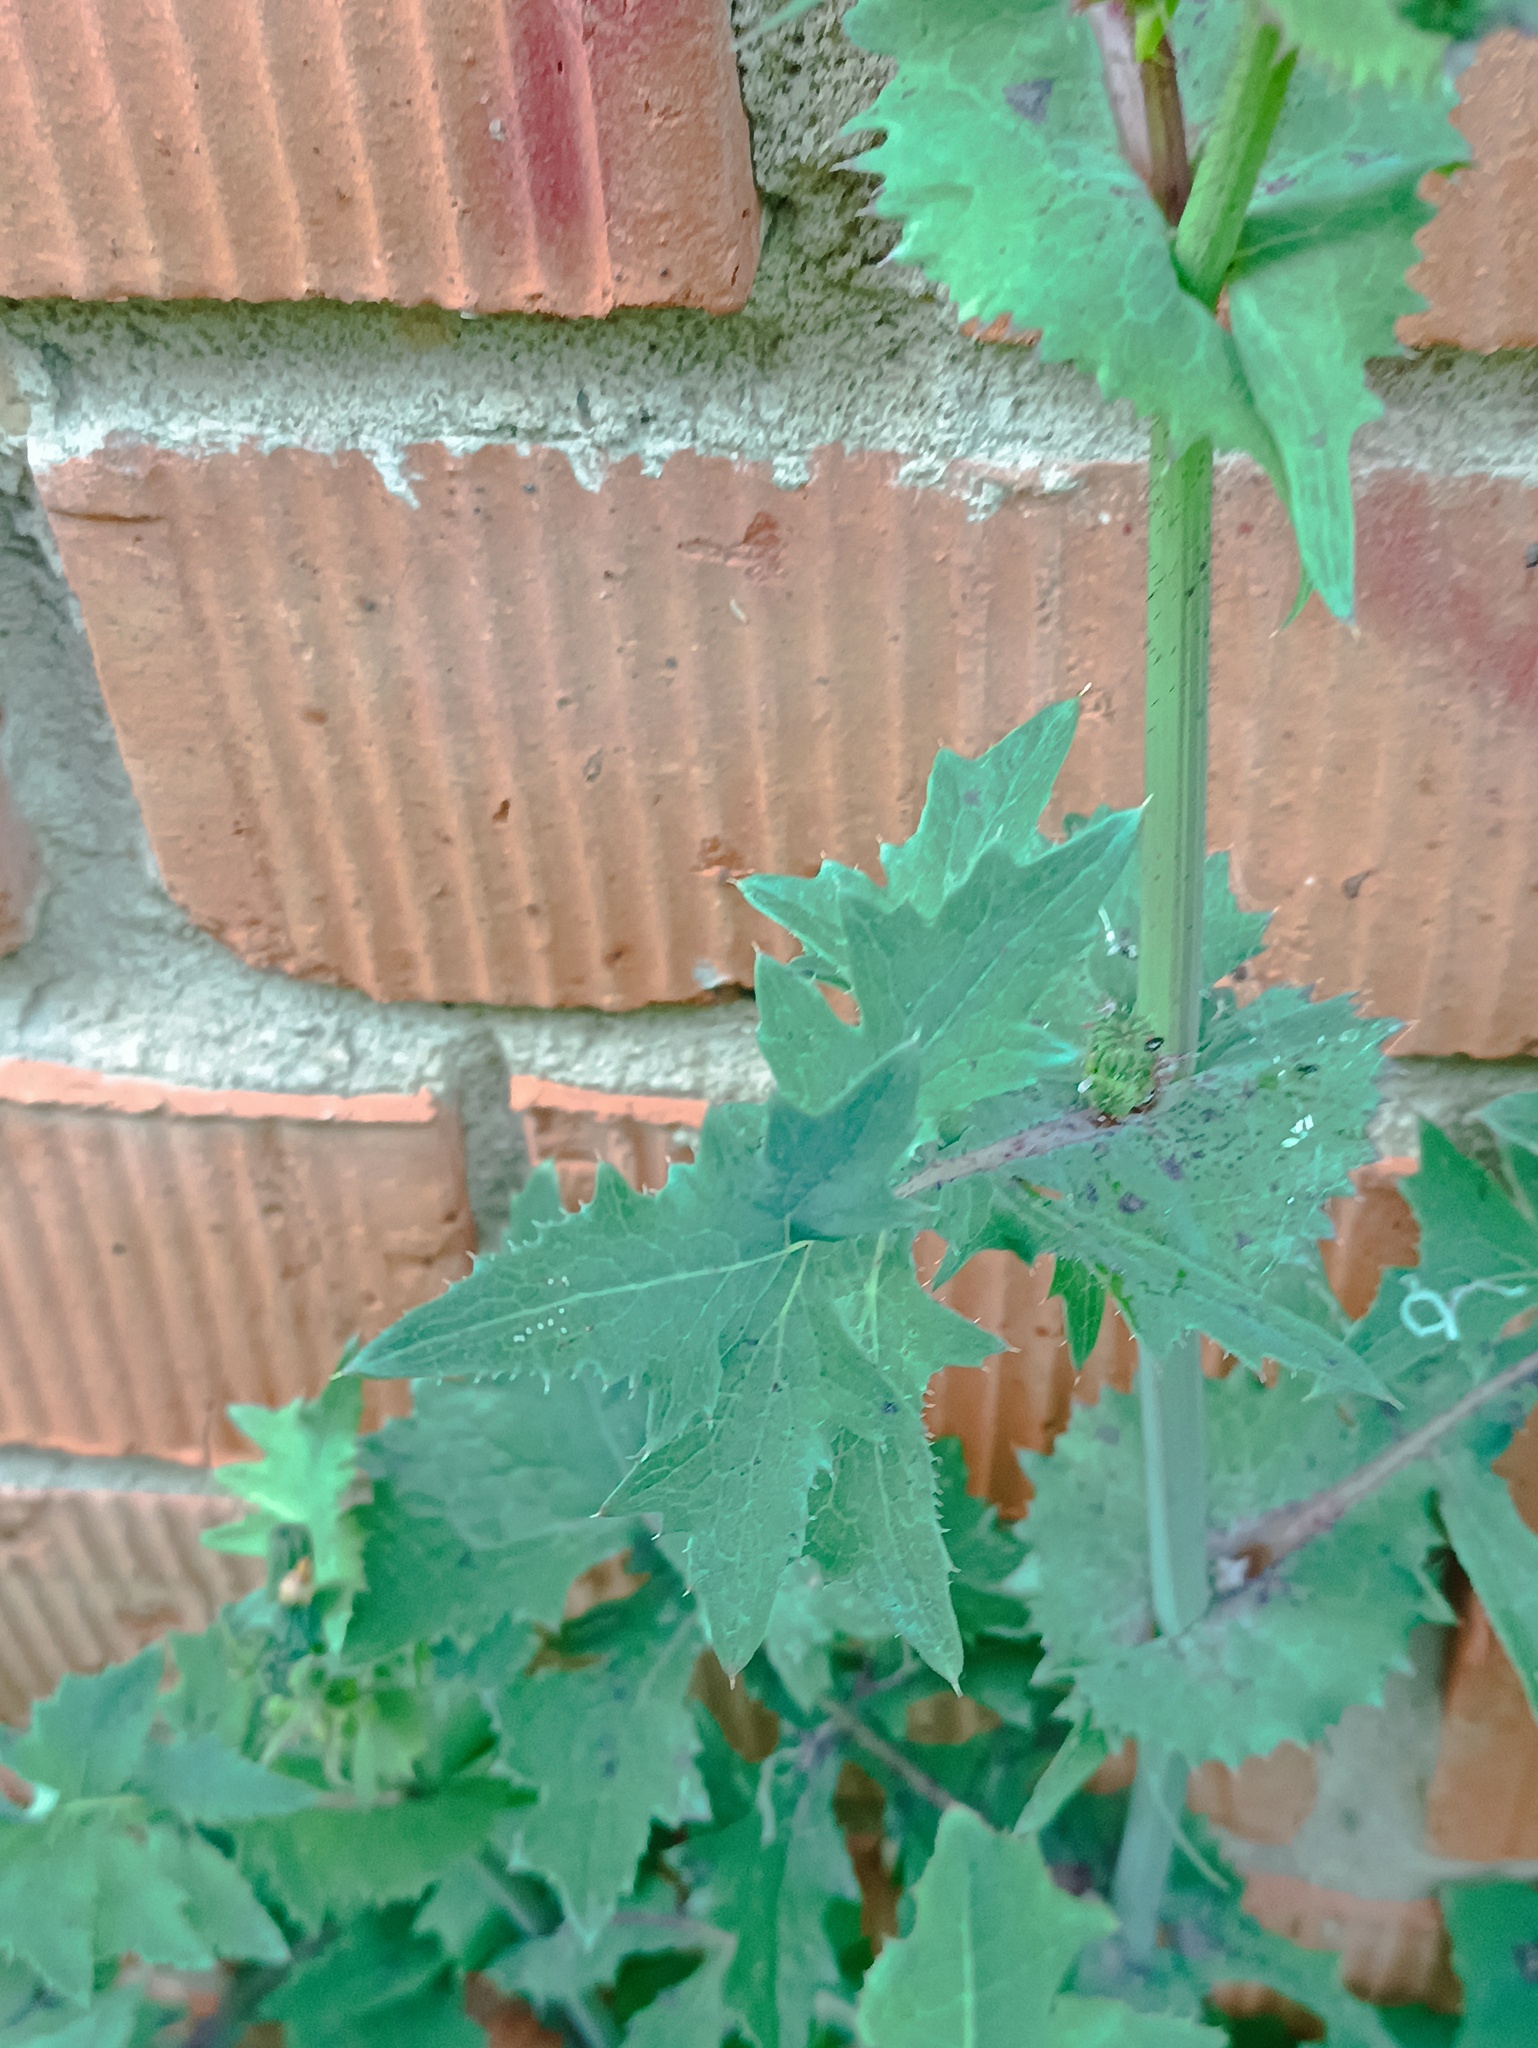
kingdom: Plantae
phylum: Tracheophyta
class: Magnoliopsida
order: Asterales
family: Asteraceae
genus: Sonchus
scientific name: Sonchus oleraceus
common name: Common sowthistle
